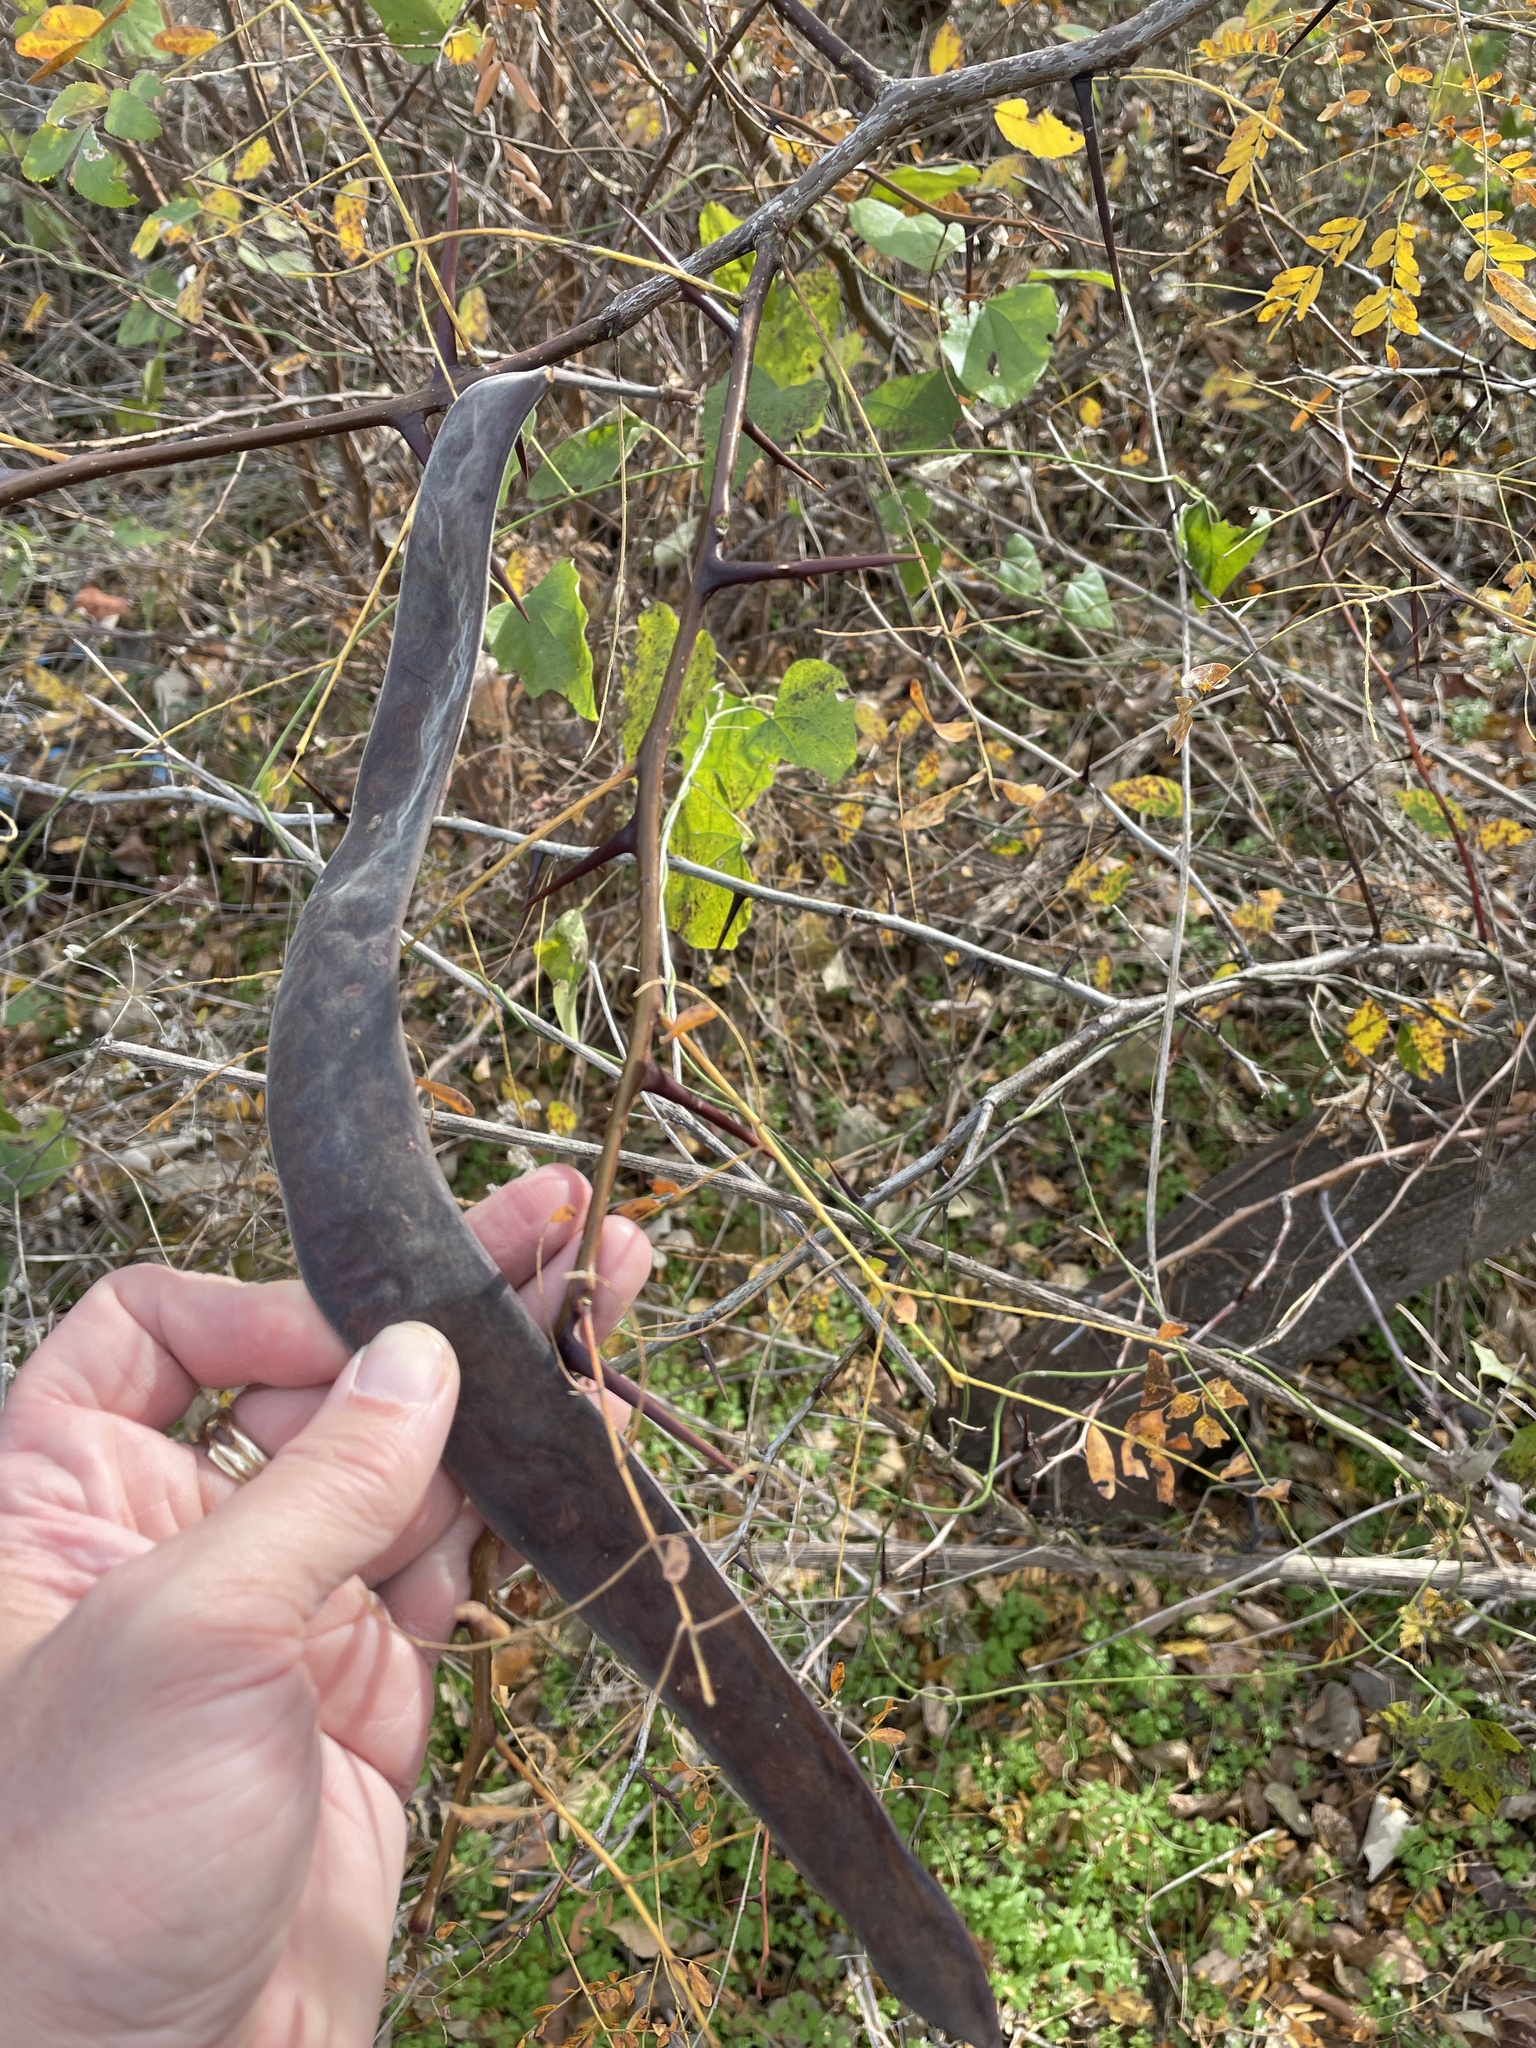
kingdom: Plantae
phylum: Tracheophyta
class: Magnoliopsida
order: Fabales
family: Fabaceae
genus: Gleditsia
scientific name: Gleditsia triacanthos
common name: Common honeylocust
